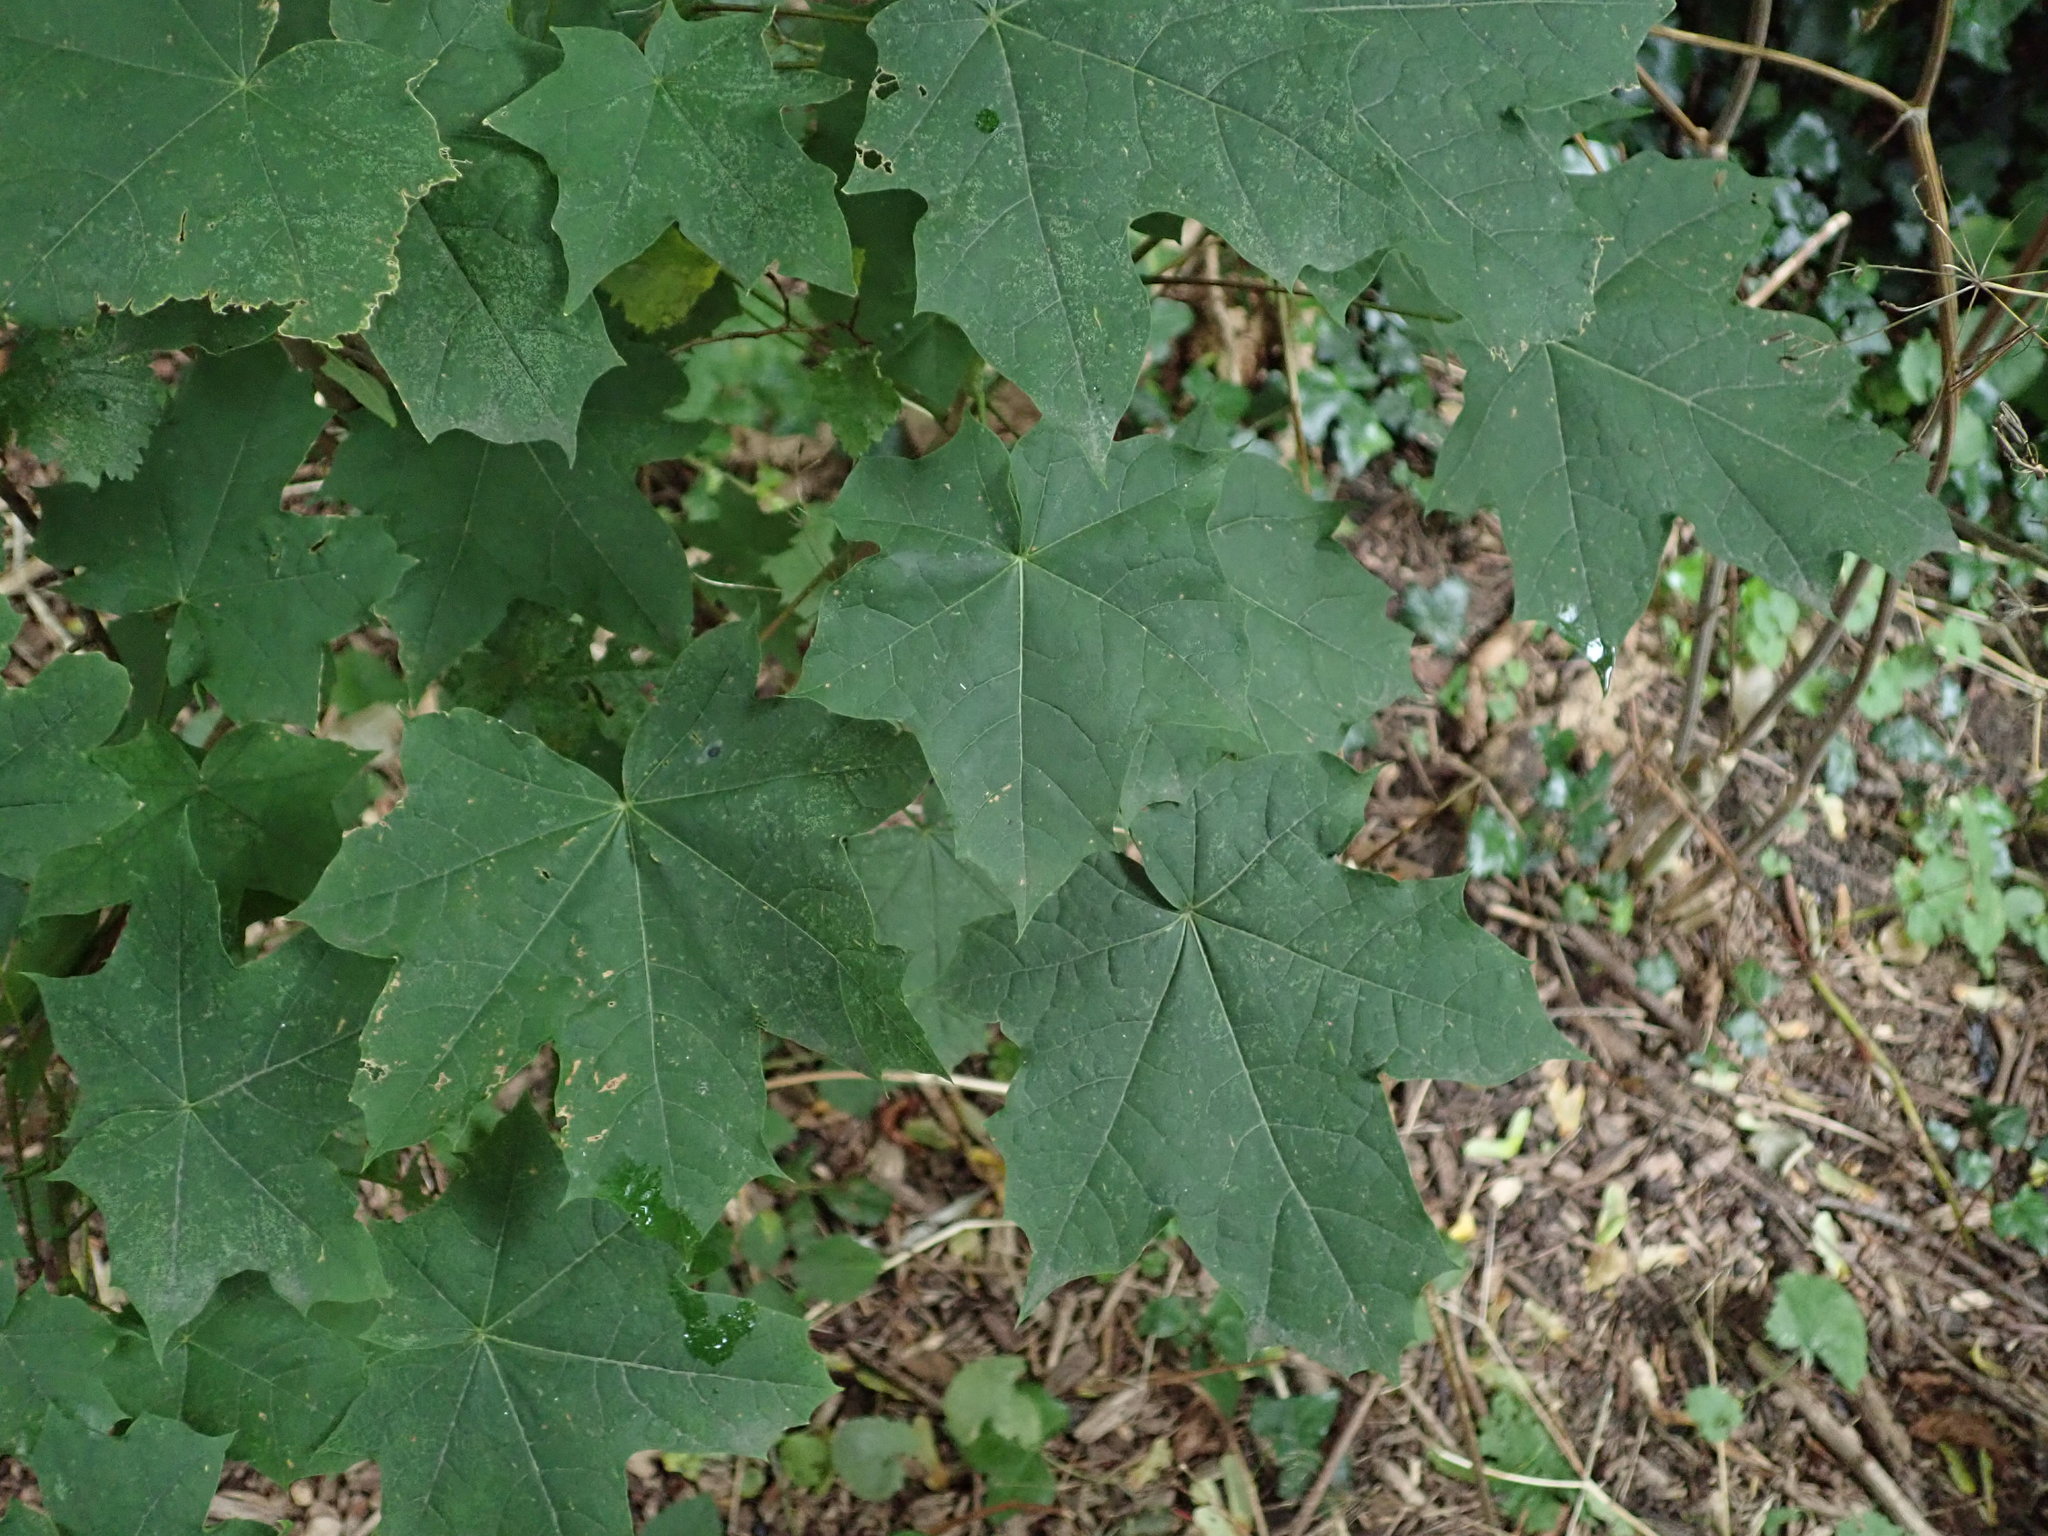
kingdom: Plantae
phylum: Tracheophyta
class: Magnoliopsida
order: Sapindales
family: Sapindaceae
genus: Acer
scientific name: Acer platanoides
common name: Norway maple
